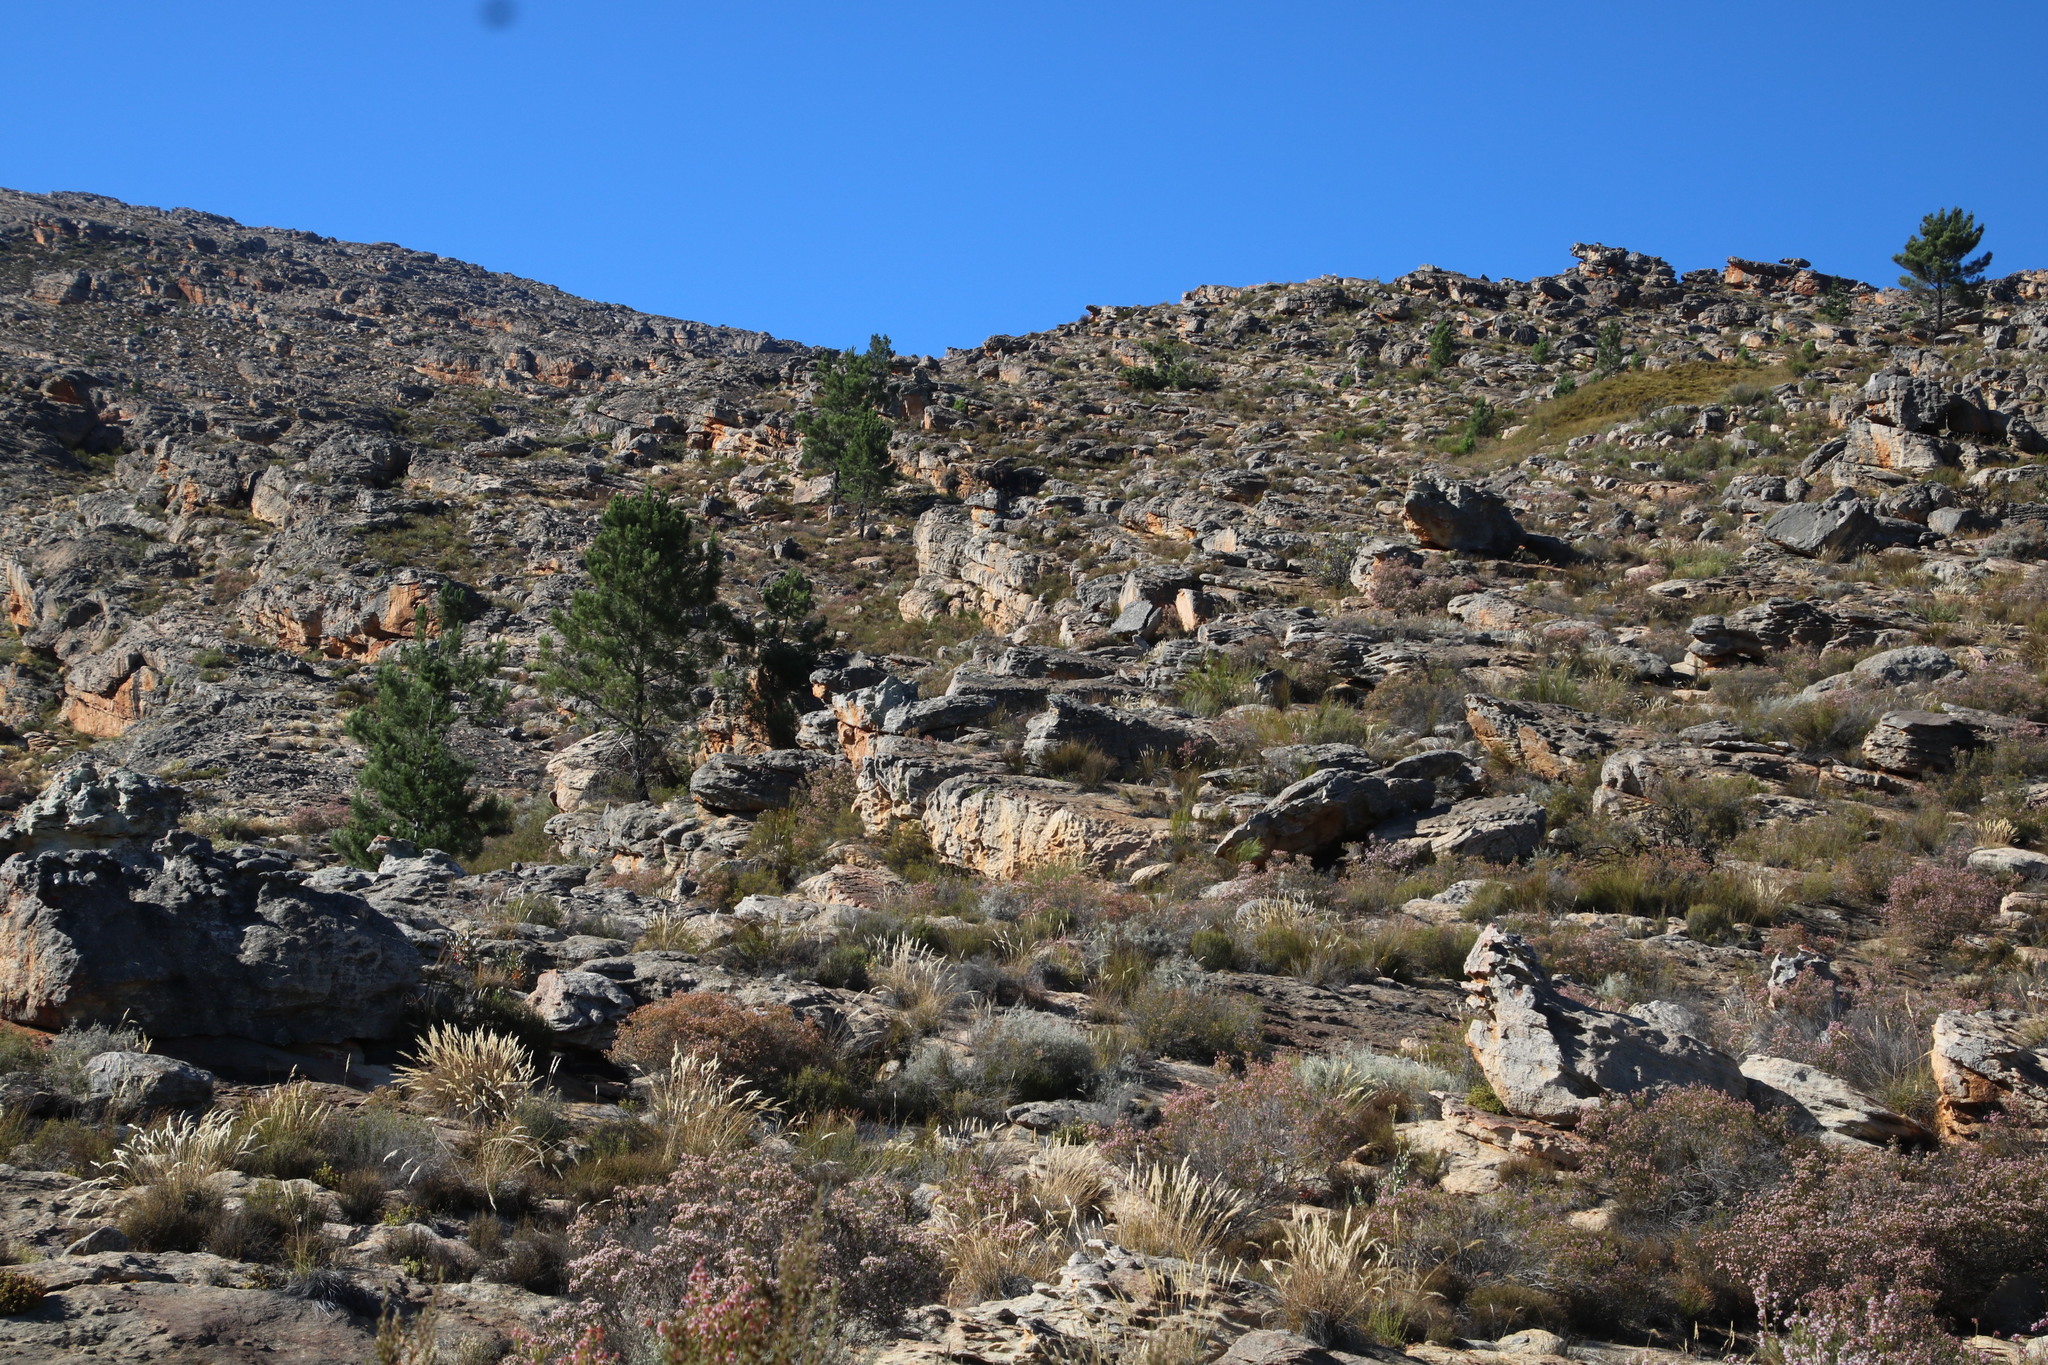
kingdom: Plantae
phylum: Tracheophyta
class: Pinopsida
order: Pinales
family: Pinaceae
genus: Pinus
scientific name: Pinus pinaster
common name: Maritime pine
